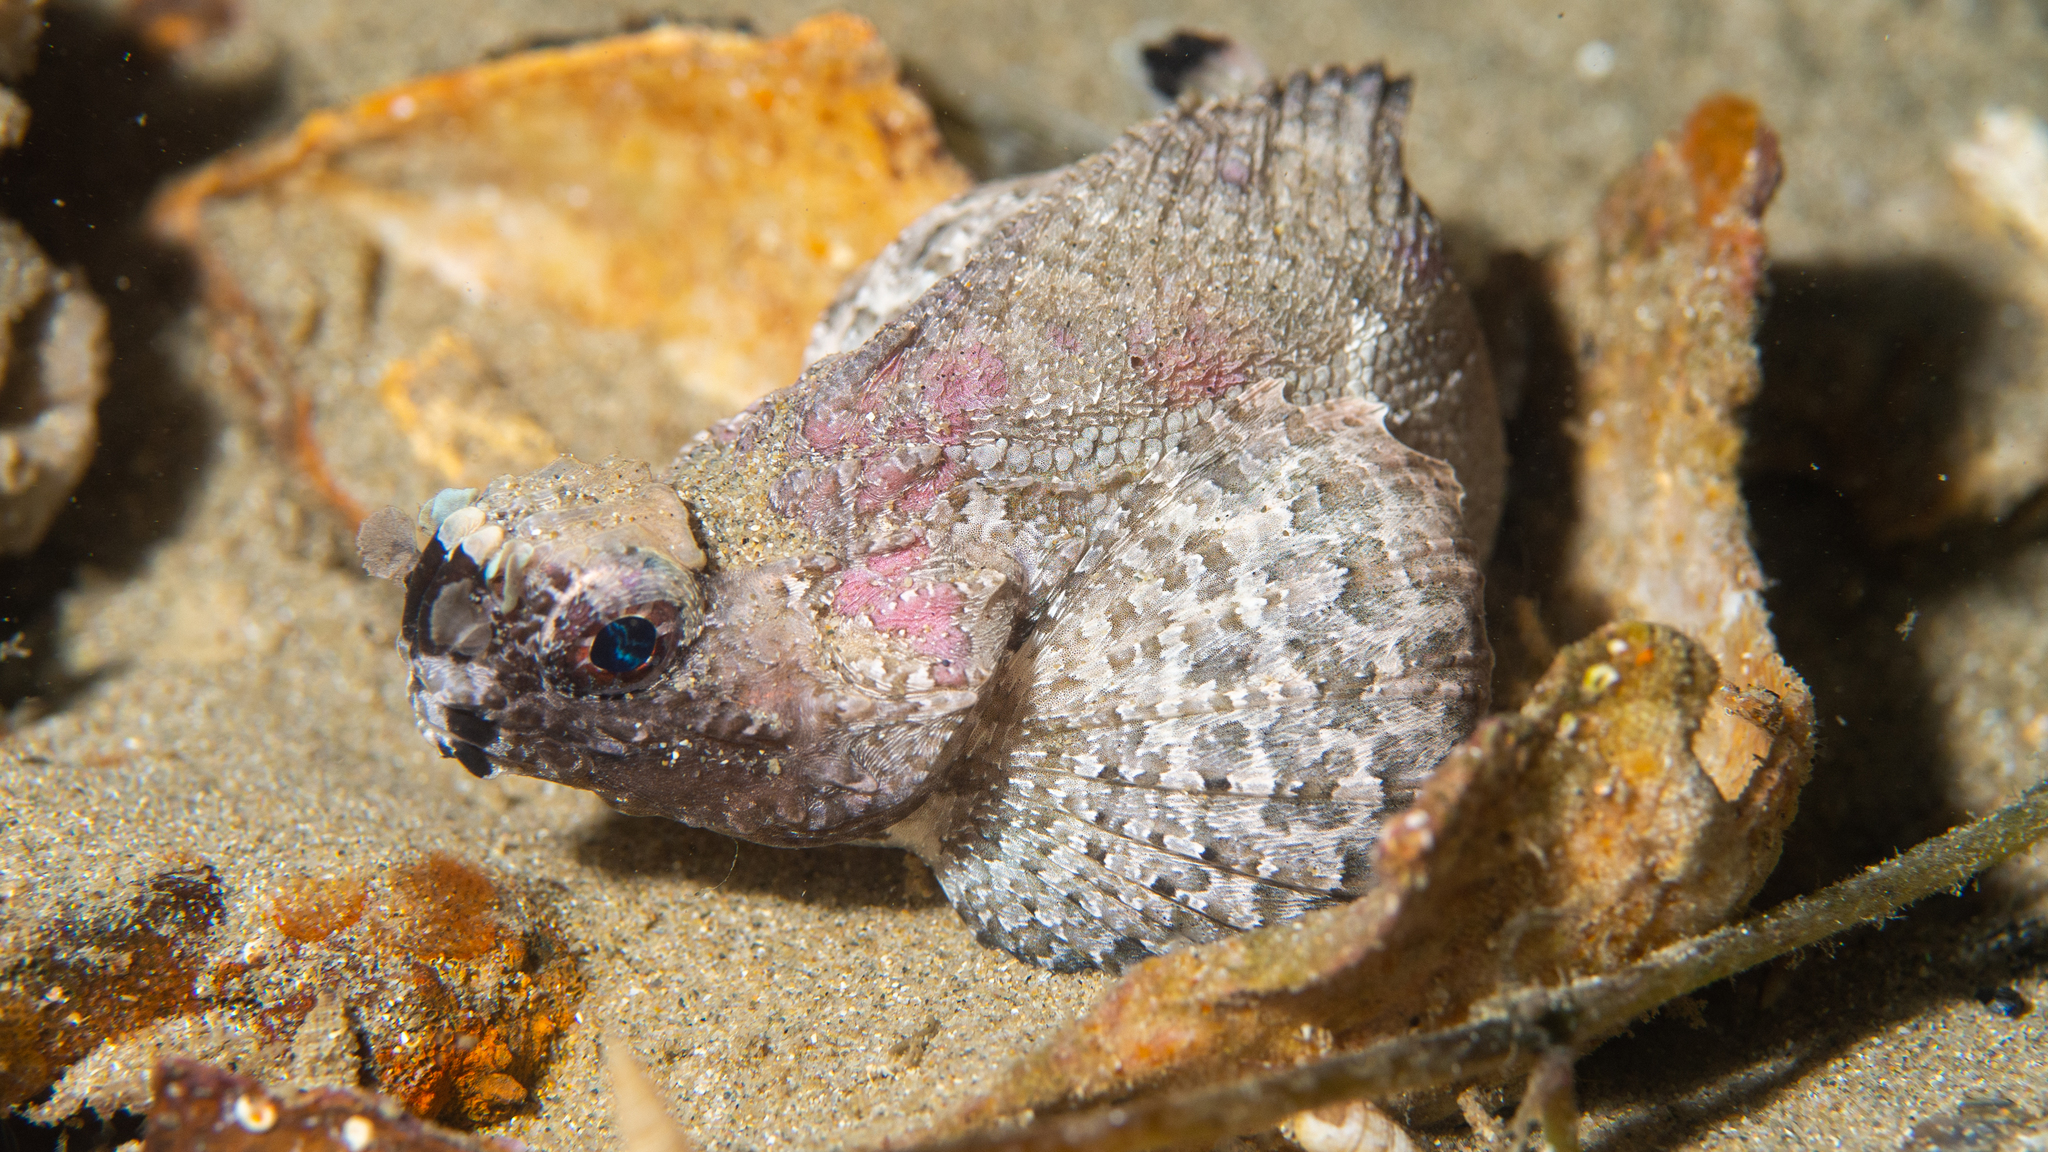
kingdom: Animalia
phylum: Chordata
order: Scorpaeniformes
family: Tetrarogidae
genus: Glyptauchen
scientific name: Glyptauchen panduratus
